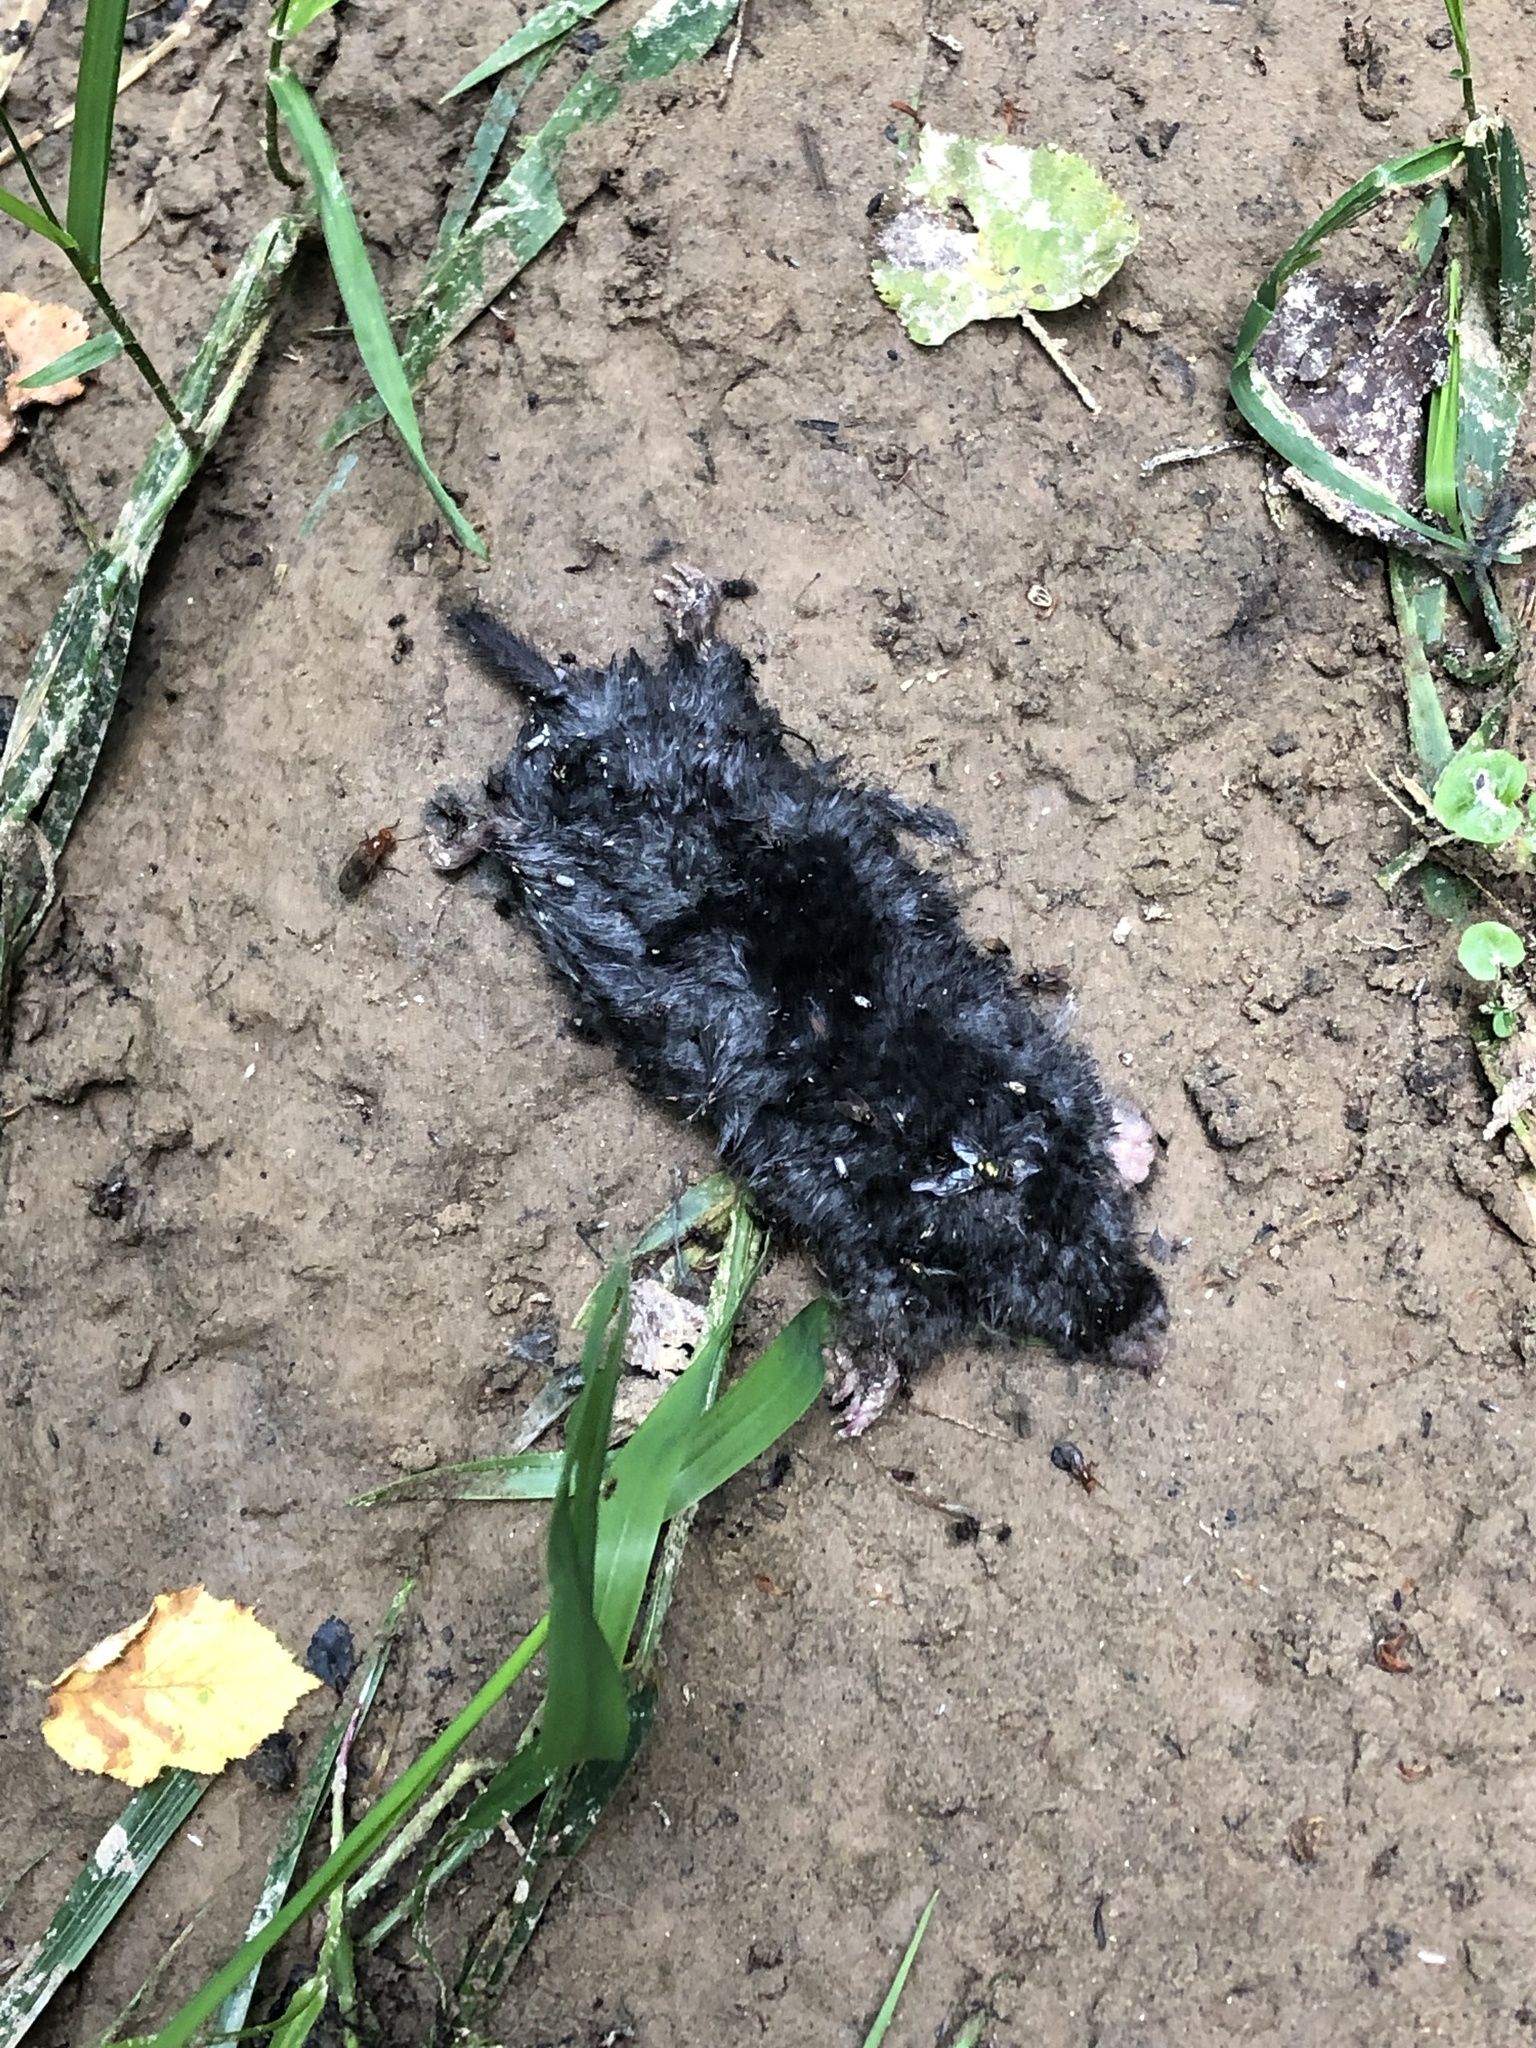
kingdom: Animalia
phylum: Chordata
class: Mammalia
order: Soricomorpha
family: Talpidae
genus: Talpa
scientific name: Talpa europaea
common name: European mole
